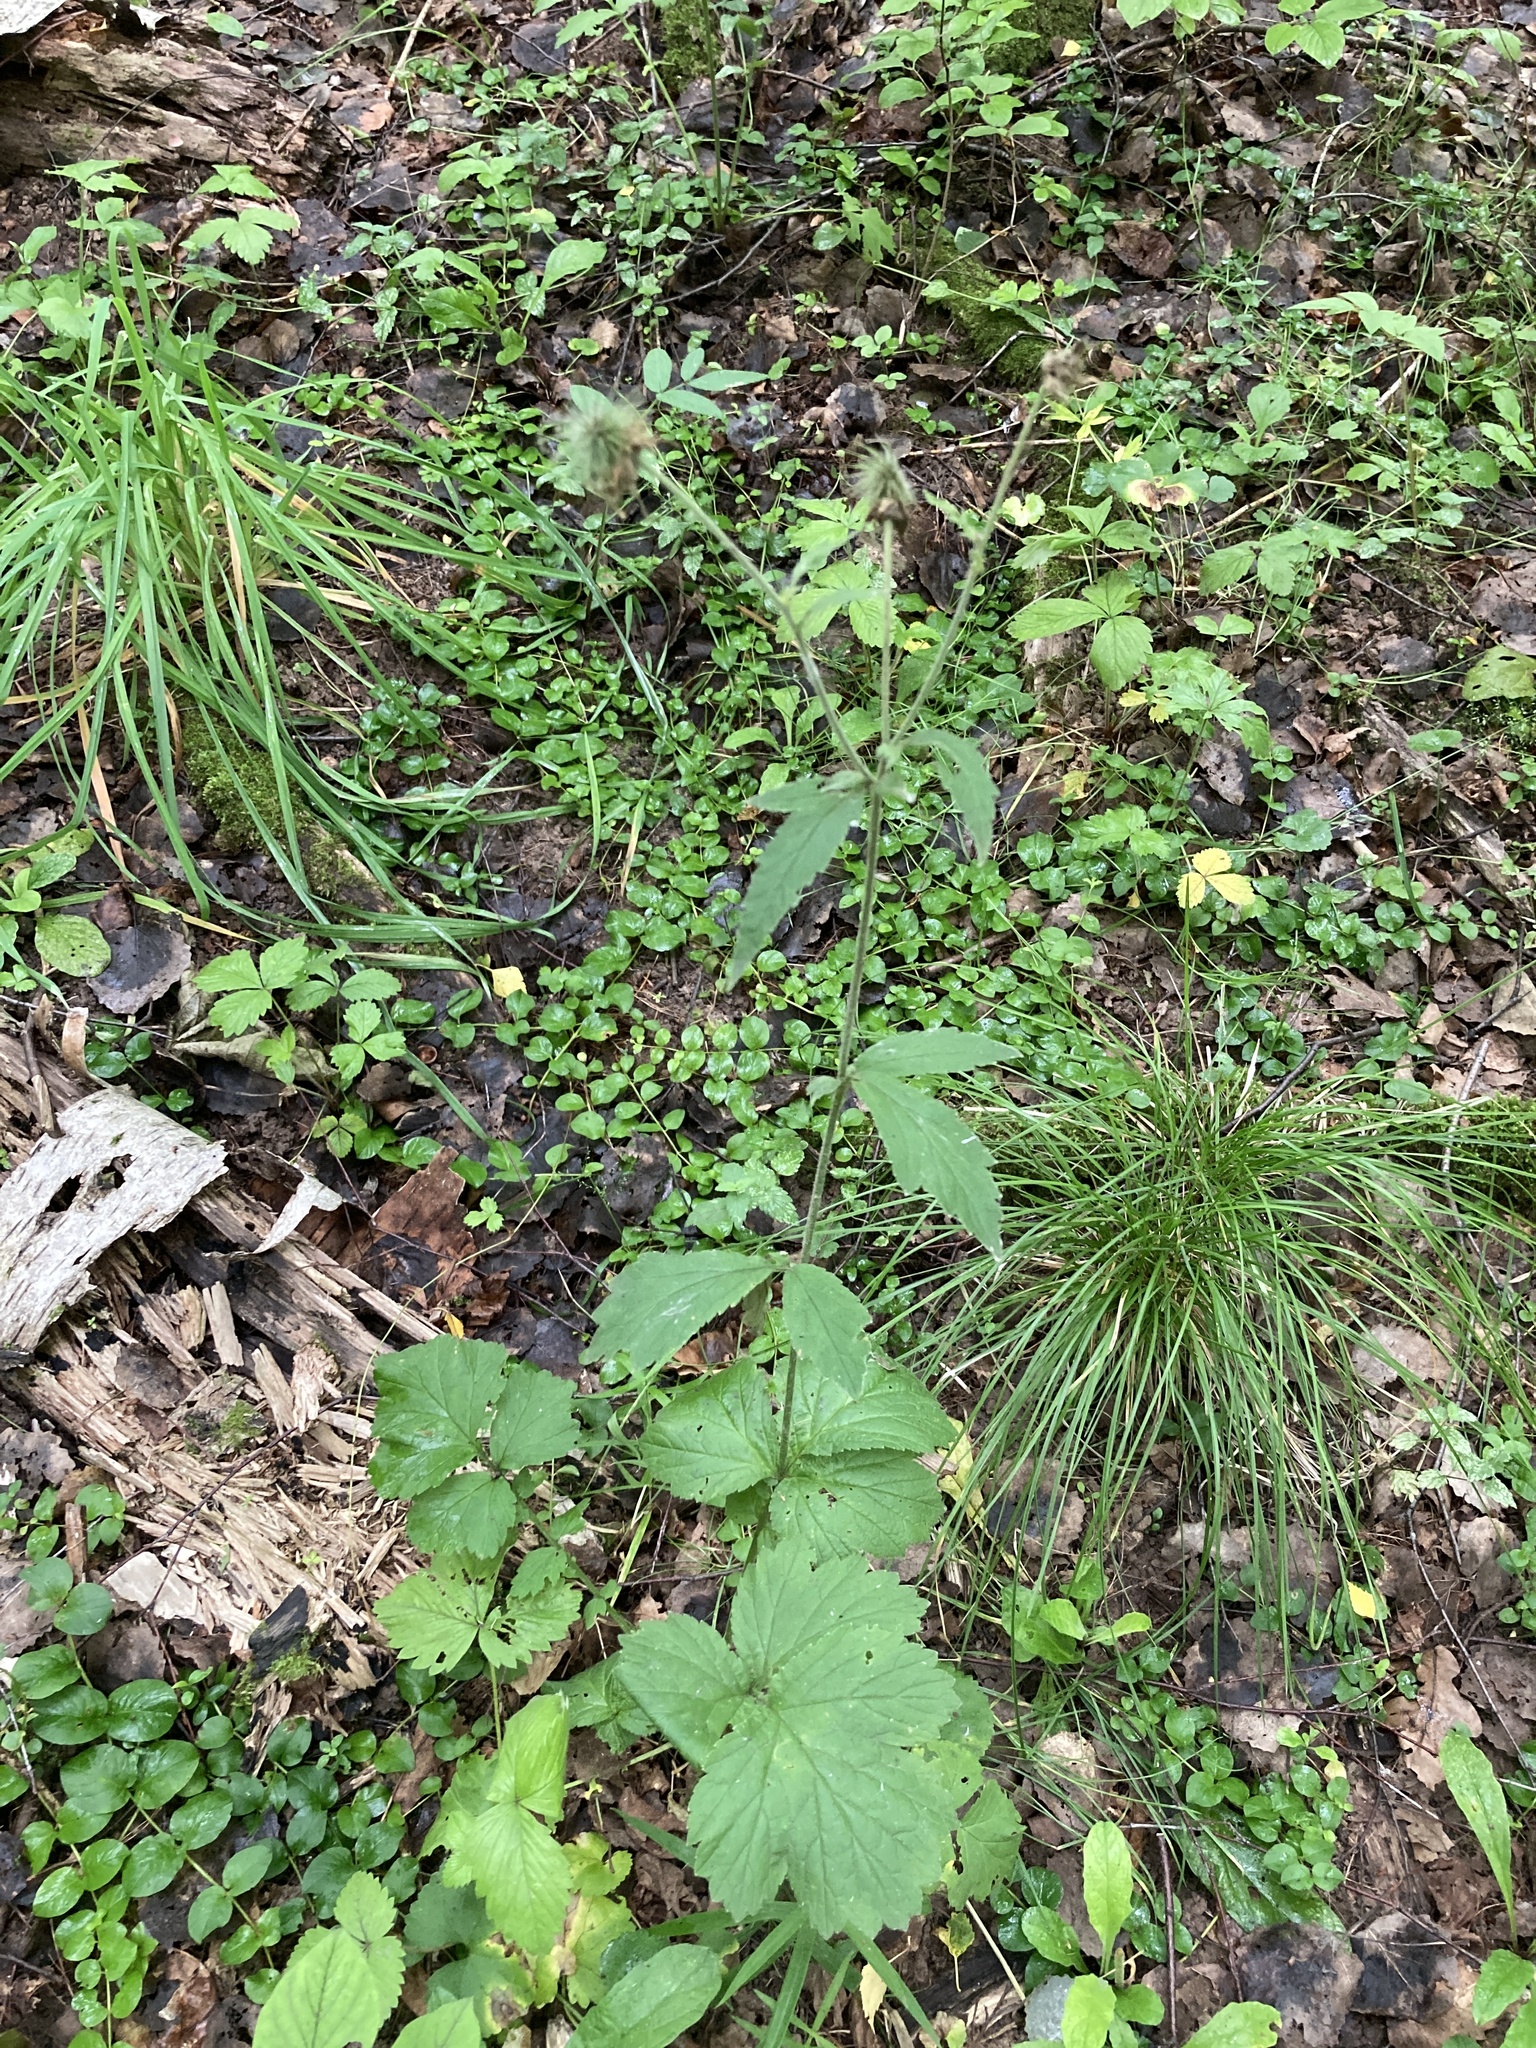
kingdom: Plantae
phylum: Tracheophyta
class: Magnoliopsida
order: Rosales
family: Rosaceae
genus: Geum
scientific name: Geum rivale
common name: Water avens
